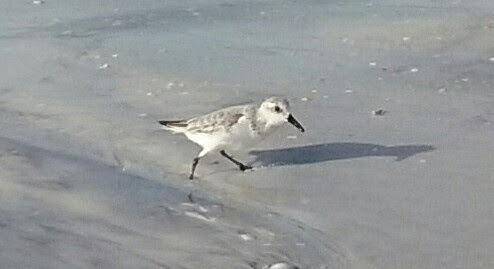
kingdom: Animalia
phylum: Chordata
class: Aves
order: Charadriiformes
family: Scolopacidae
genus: Calidris
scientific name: Calidris alba
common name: Sanderling
